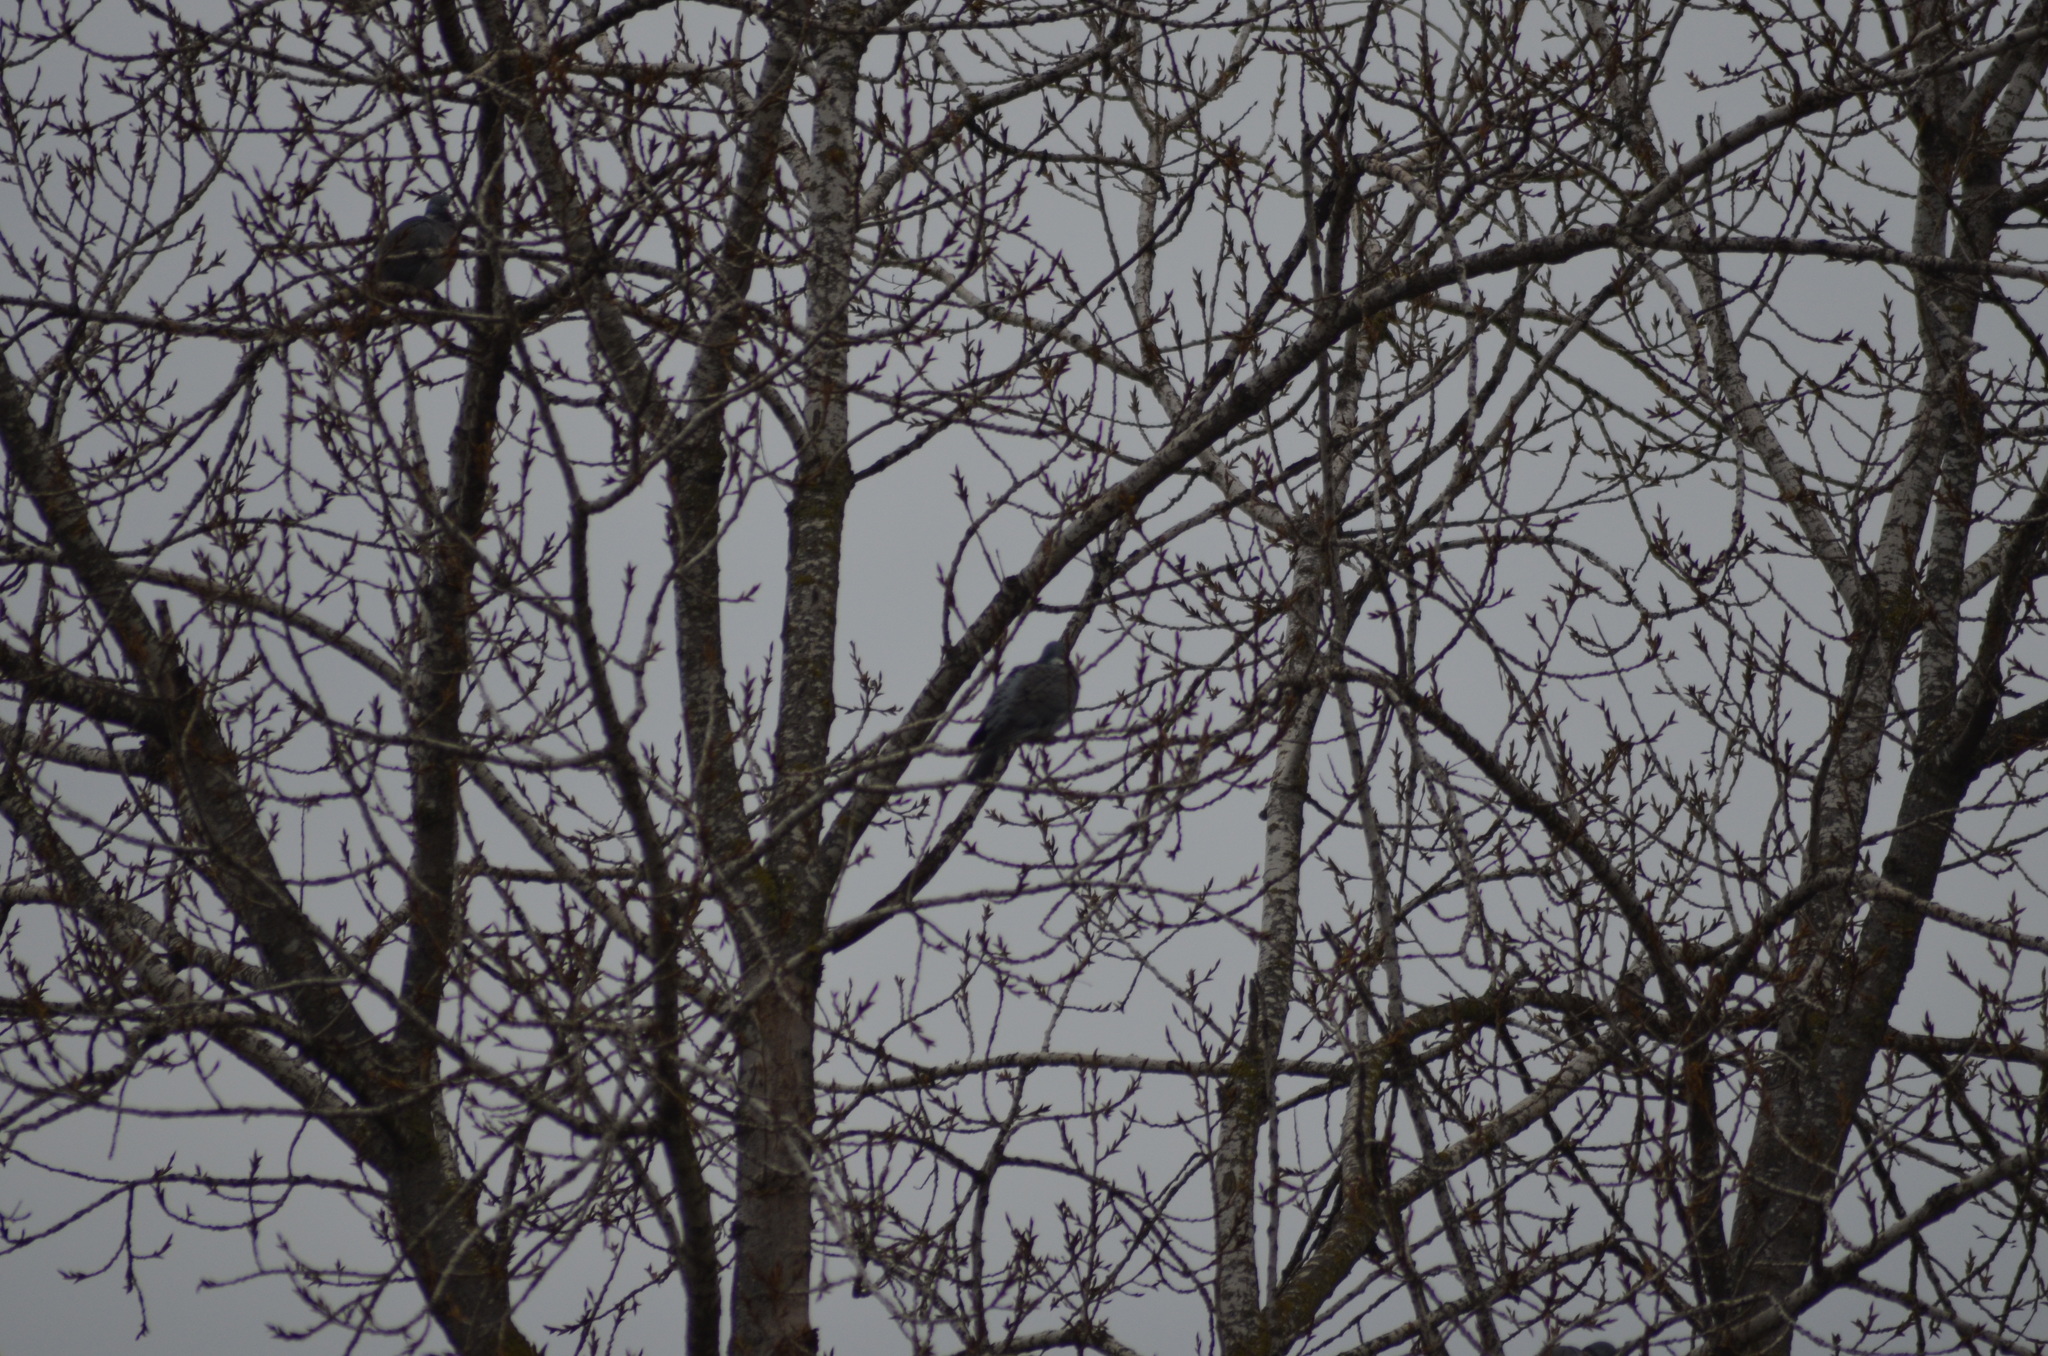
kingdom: Animalia
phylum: Chordata
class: Aves
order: Columbiformes
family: Columbidae
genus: Columba
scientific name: Columba palumbus
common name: Common wood pigeon
